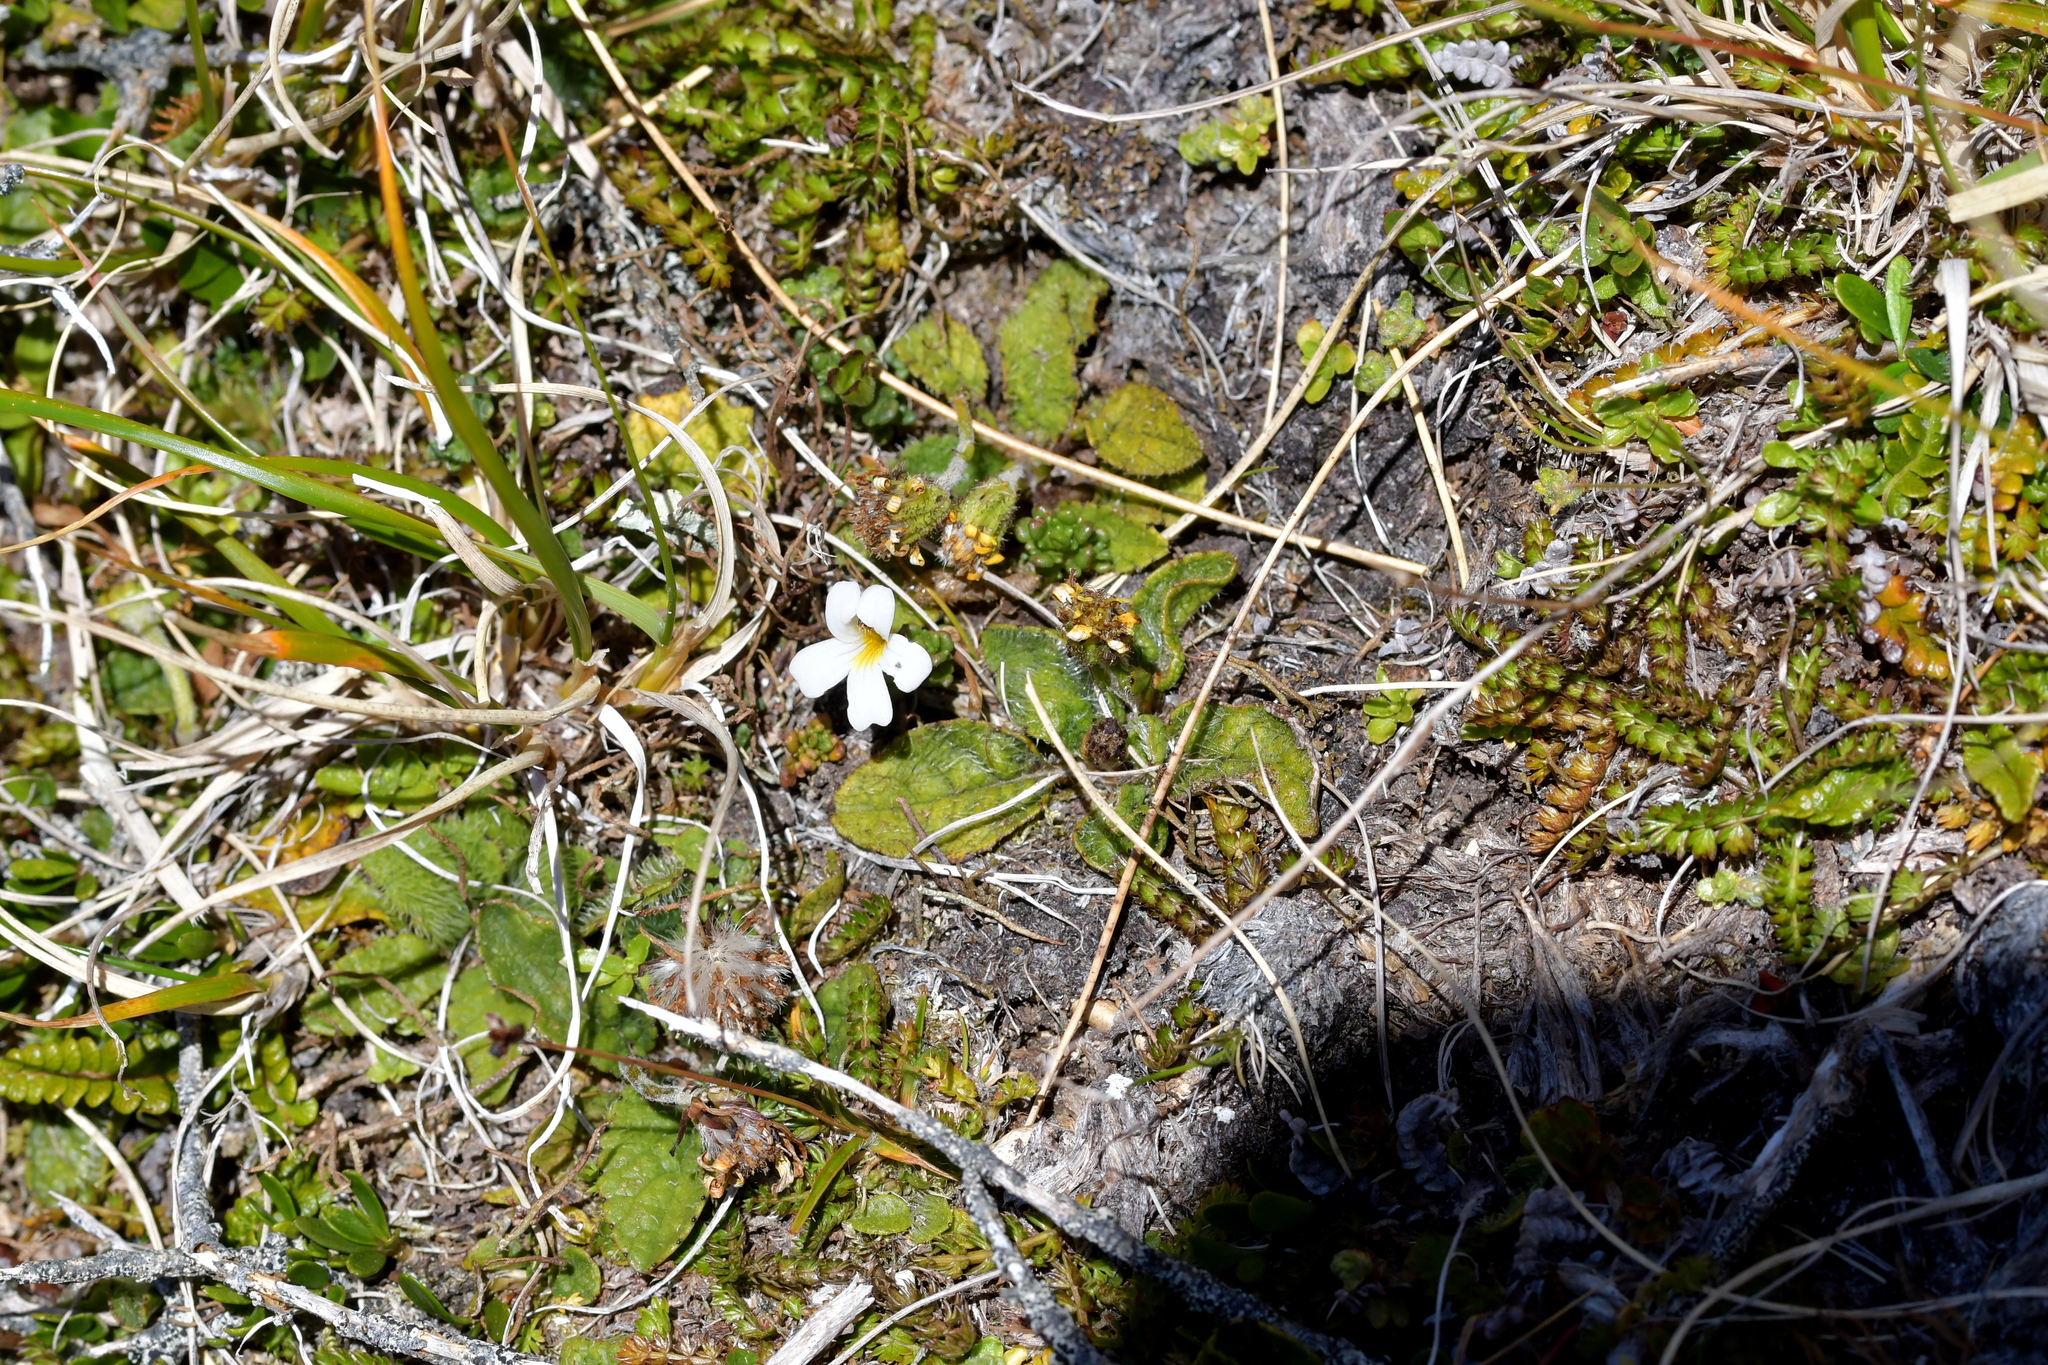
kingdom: Plantae
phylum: Tracheophyta
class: Magnoliopsida
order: Lamiales
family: Orobanchaceae
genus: Euphrasia
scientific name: Euphrasia revoluta
